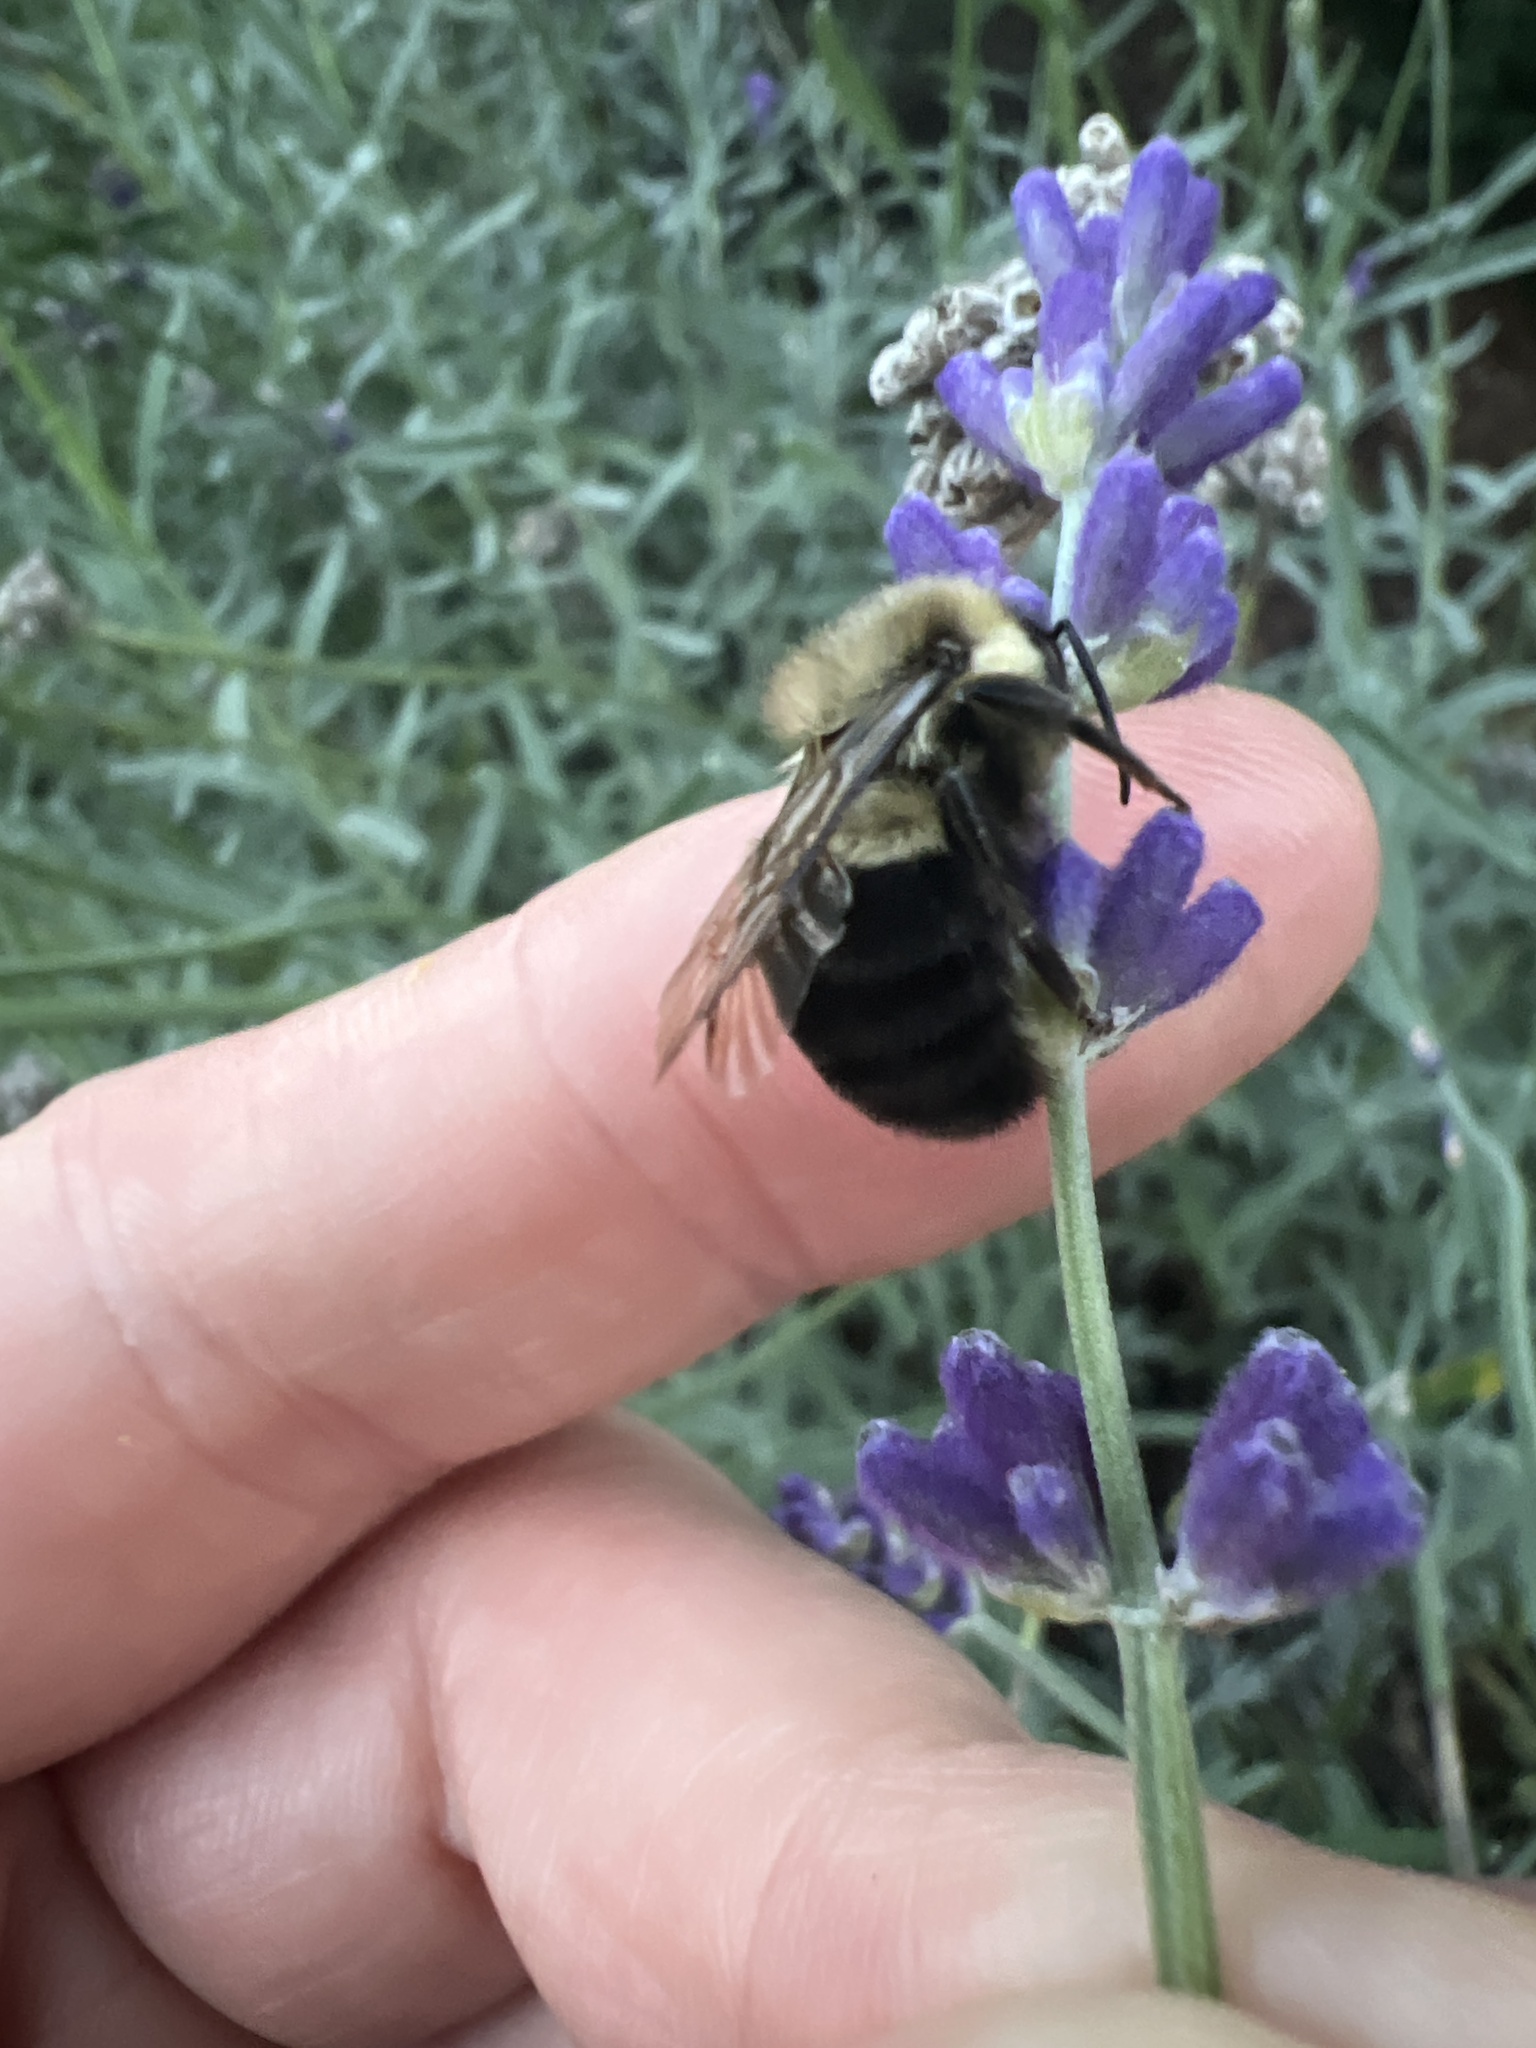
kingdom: Animalia
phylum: Arthropoda
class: Insecta
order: Hymenoptera
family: Apidae
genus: Bombus
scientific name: Bombus impatiens
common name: Common eastern bumble bee
